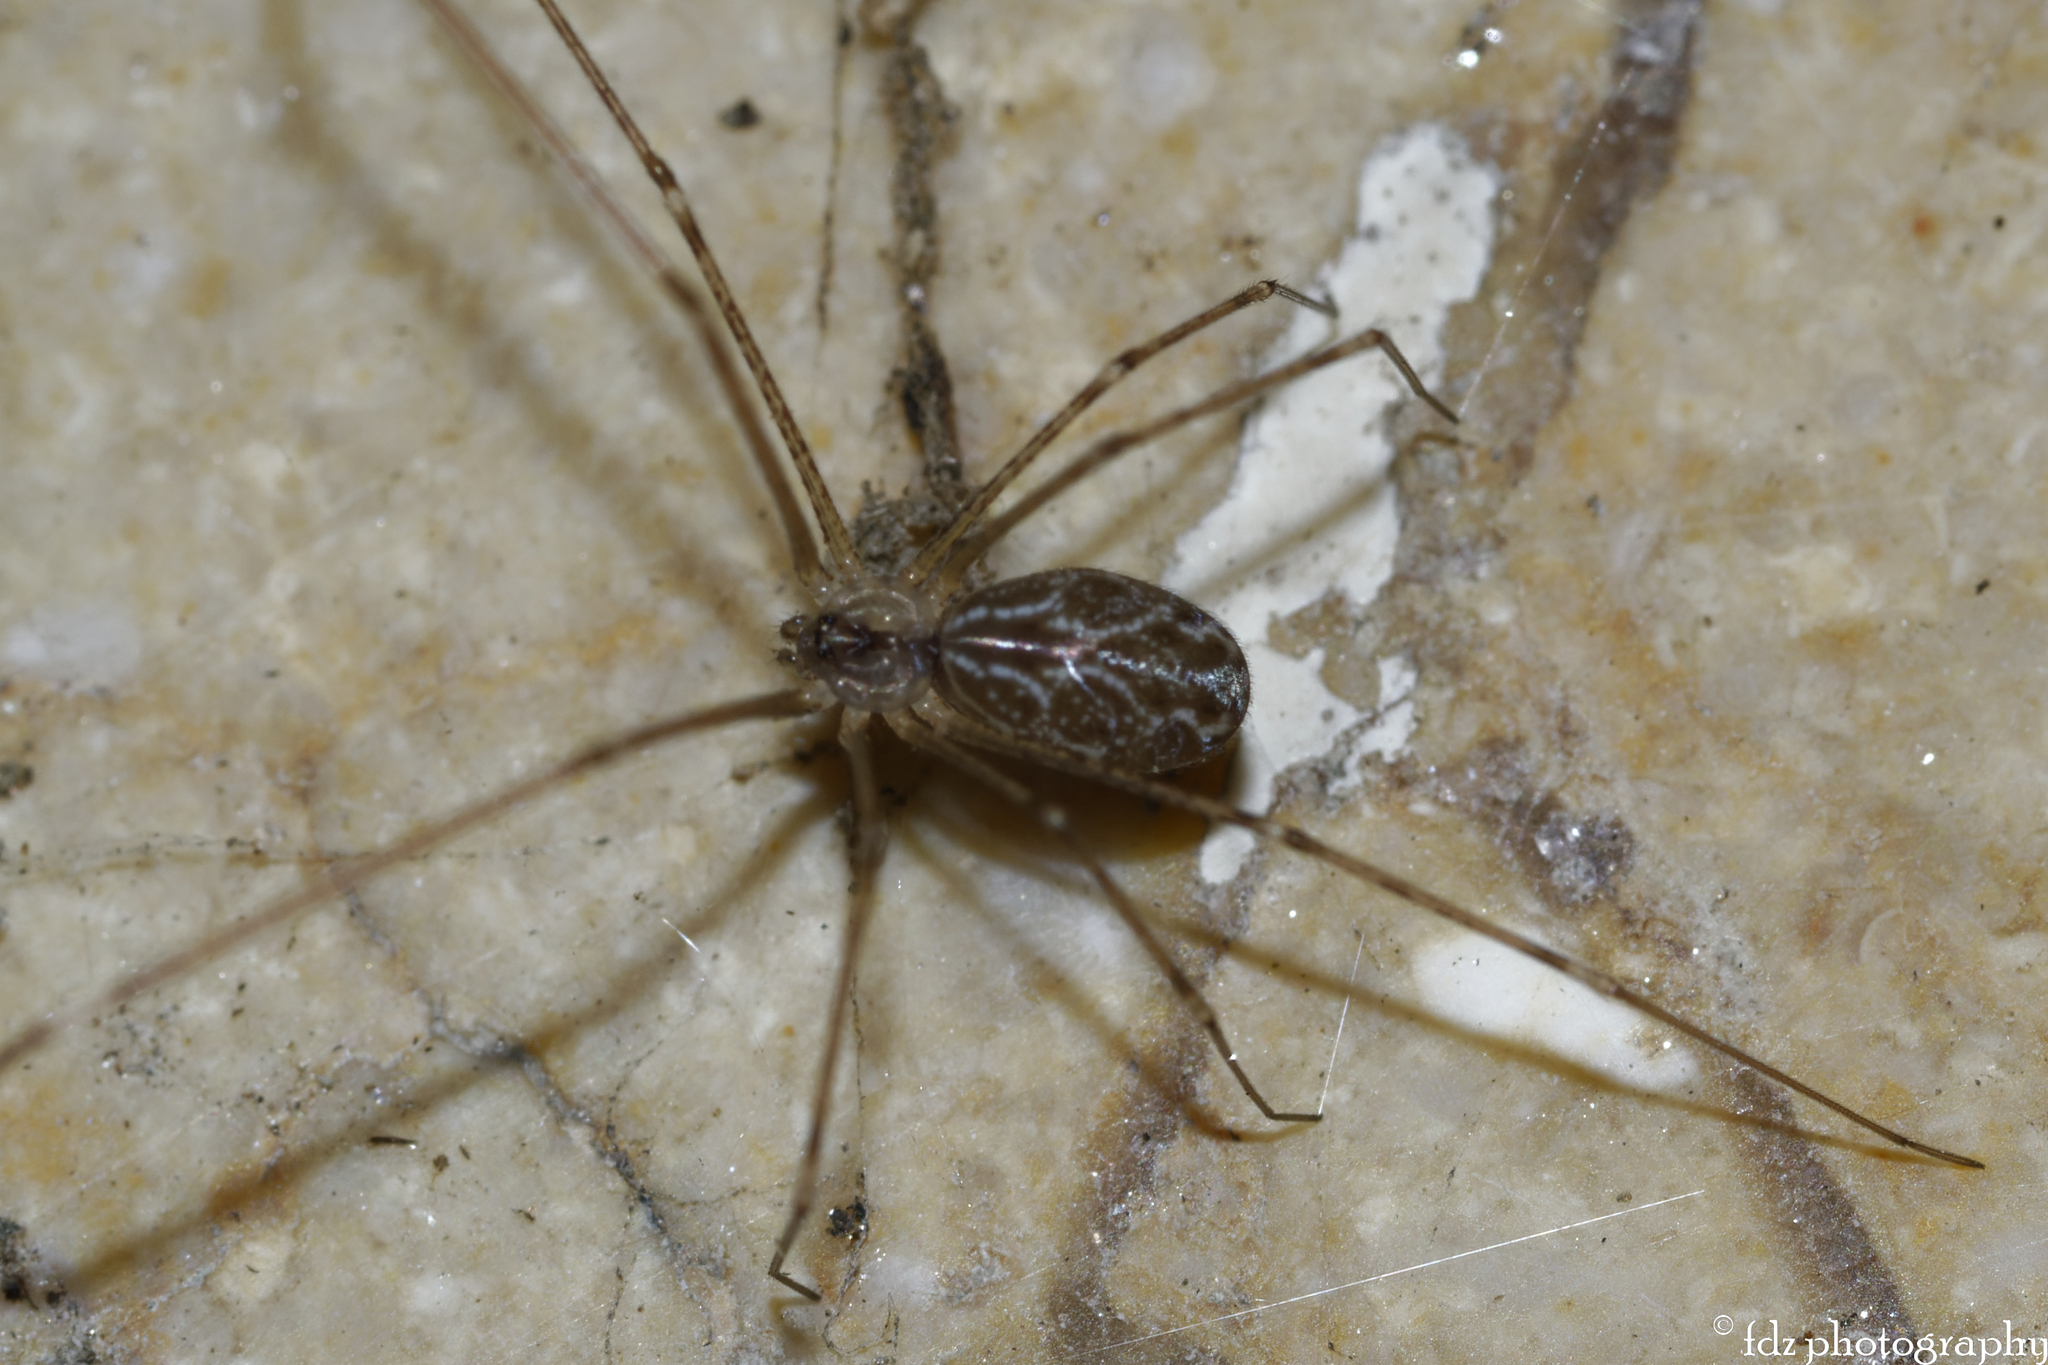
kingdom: Animalia
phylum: Arthropoda
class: Arachnida
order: Araneae
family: Pholcidae
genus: Holocnemus
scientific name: Holocnemus pluchei
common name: Marbled cellar spider
